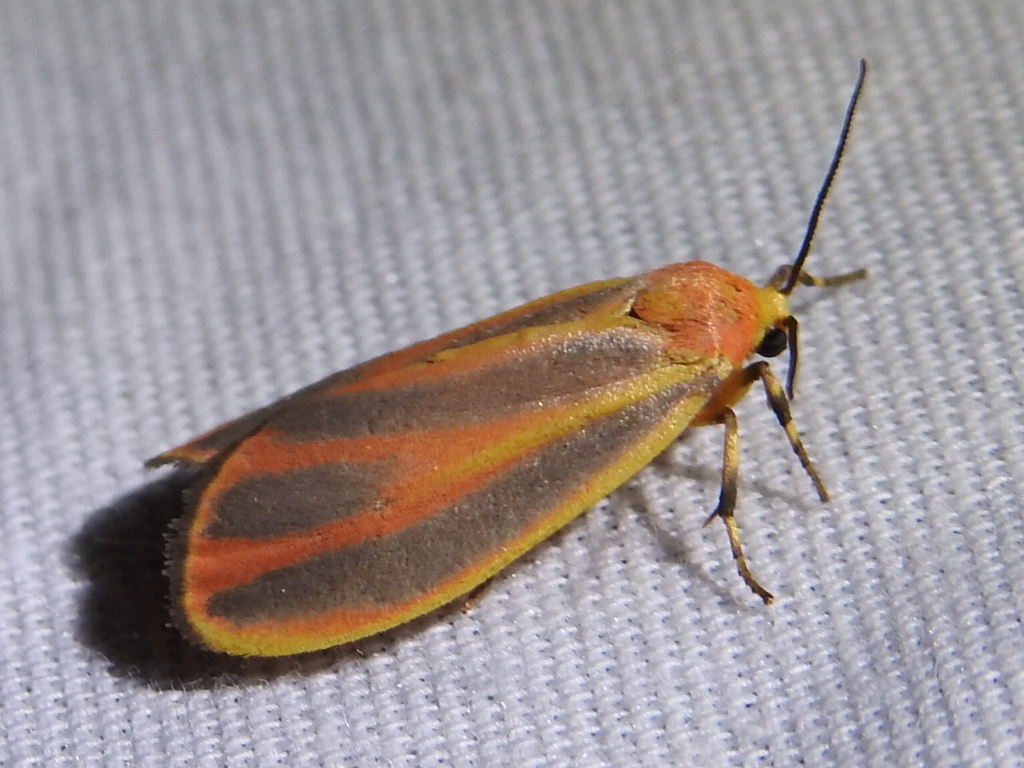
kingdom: Animalia
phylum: Arthropoda
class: Insecta
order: Lepidoptera
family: Erebidae
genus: Hypoprepia
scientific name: Hypoprepia fucosa
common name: Painted lichen moth
